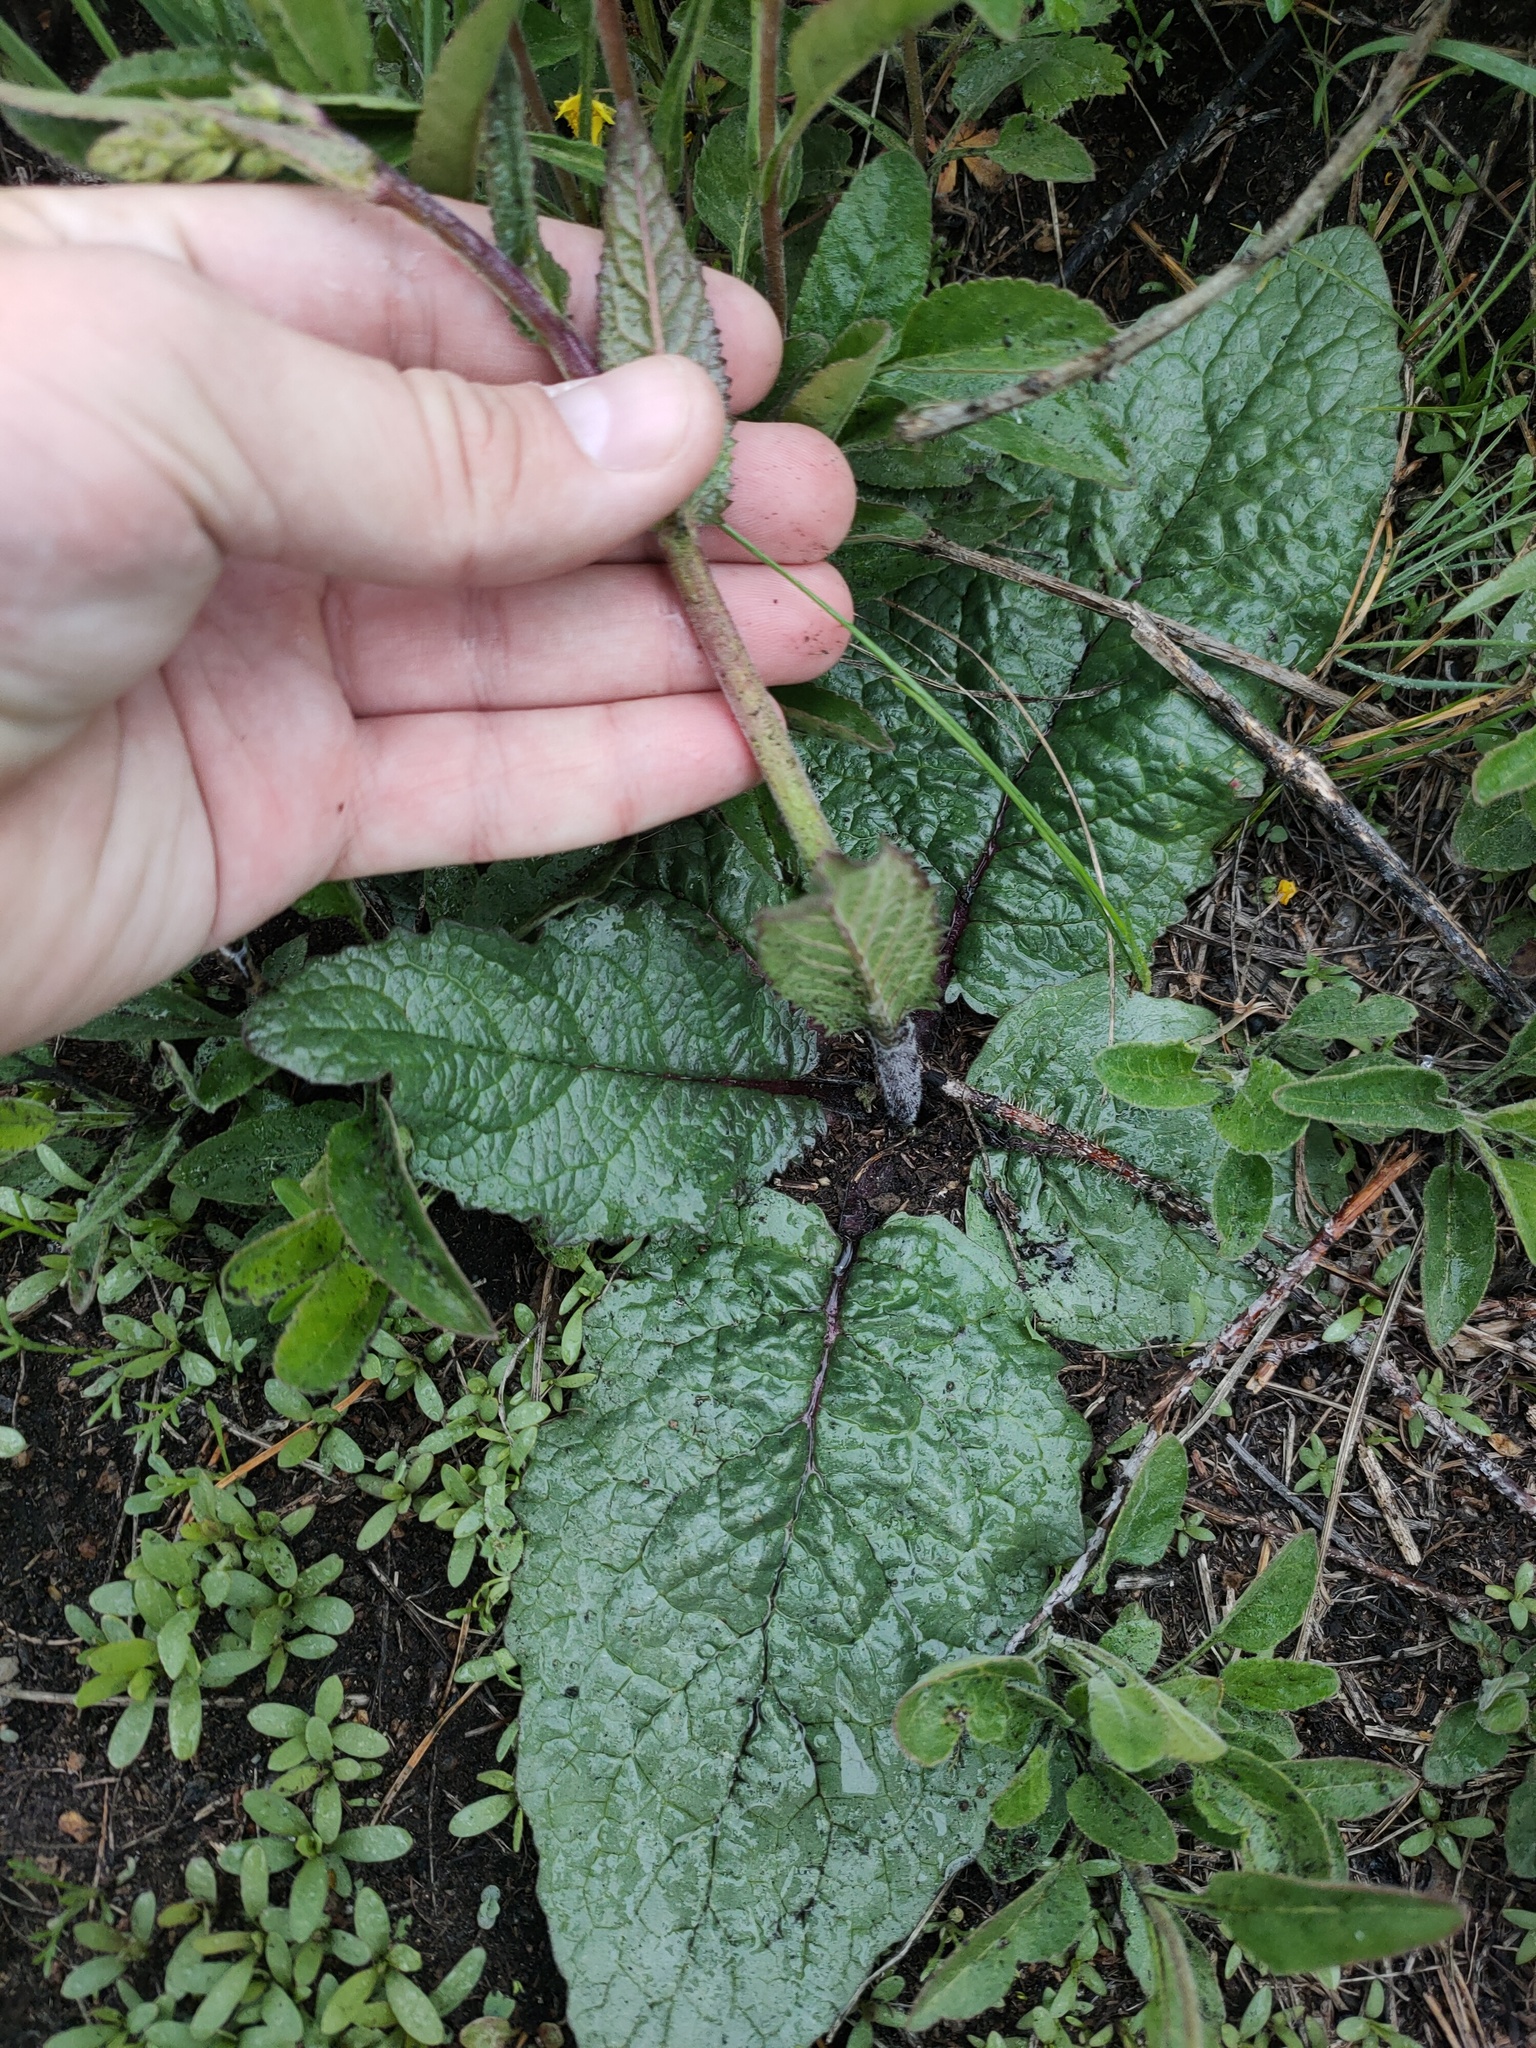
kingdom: Plantae
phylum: Tracheophyta
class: Magnoliopsida
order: Lamiales
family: Scrophulariaceae
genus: Verbascum
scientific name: Verbascum phoeniceum
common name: Purple mullein
